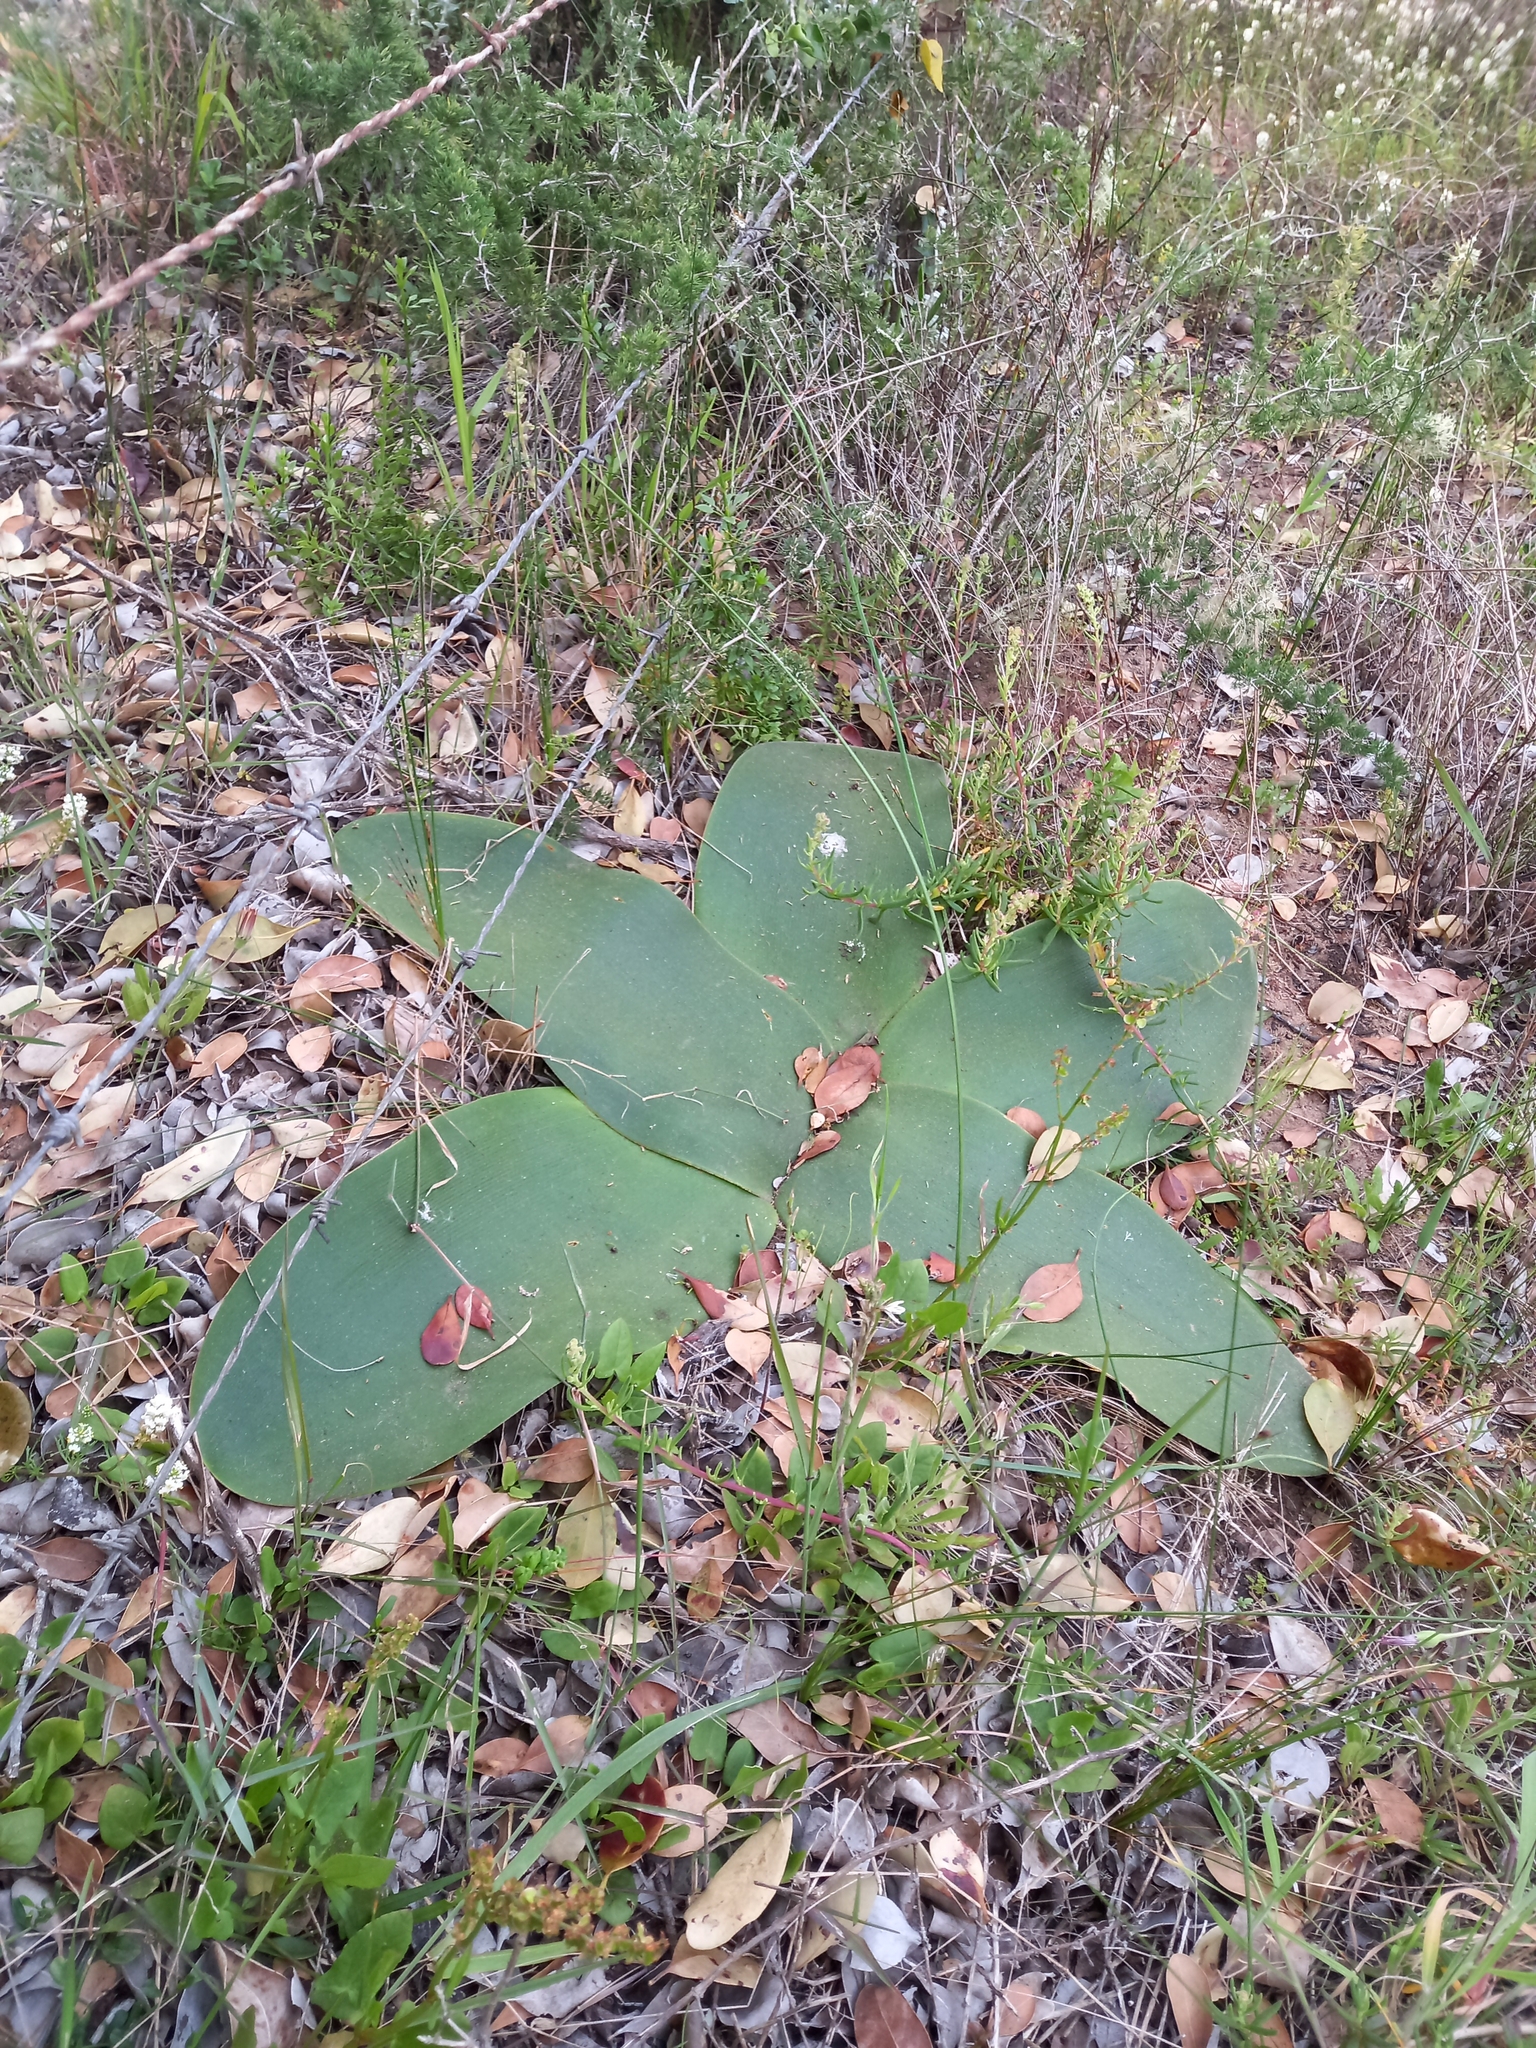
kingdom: Plantae
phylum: Tracheophyta
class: Liliopsida
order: Asparagales
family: Amaryllidaceae
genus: Brunsvigia
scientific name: Brunsvigia orientalis
